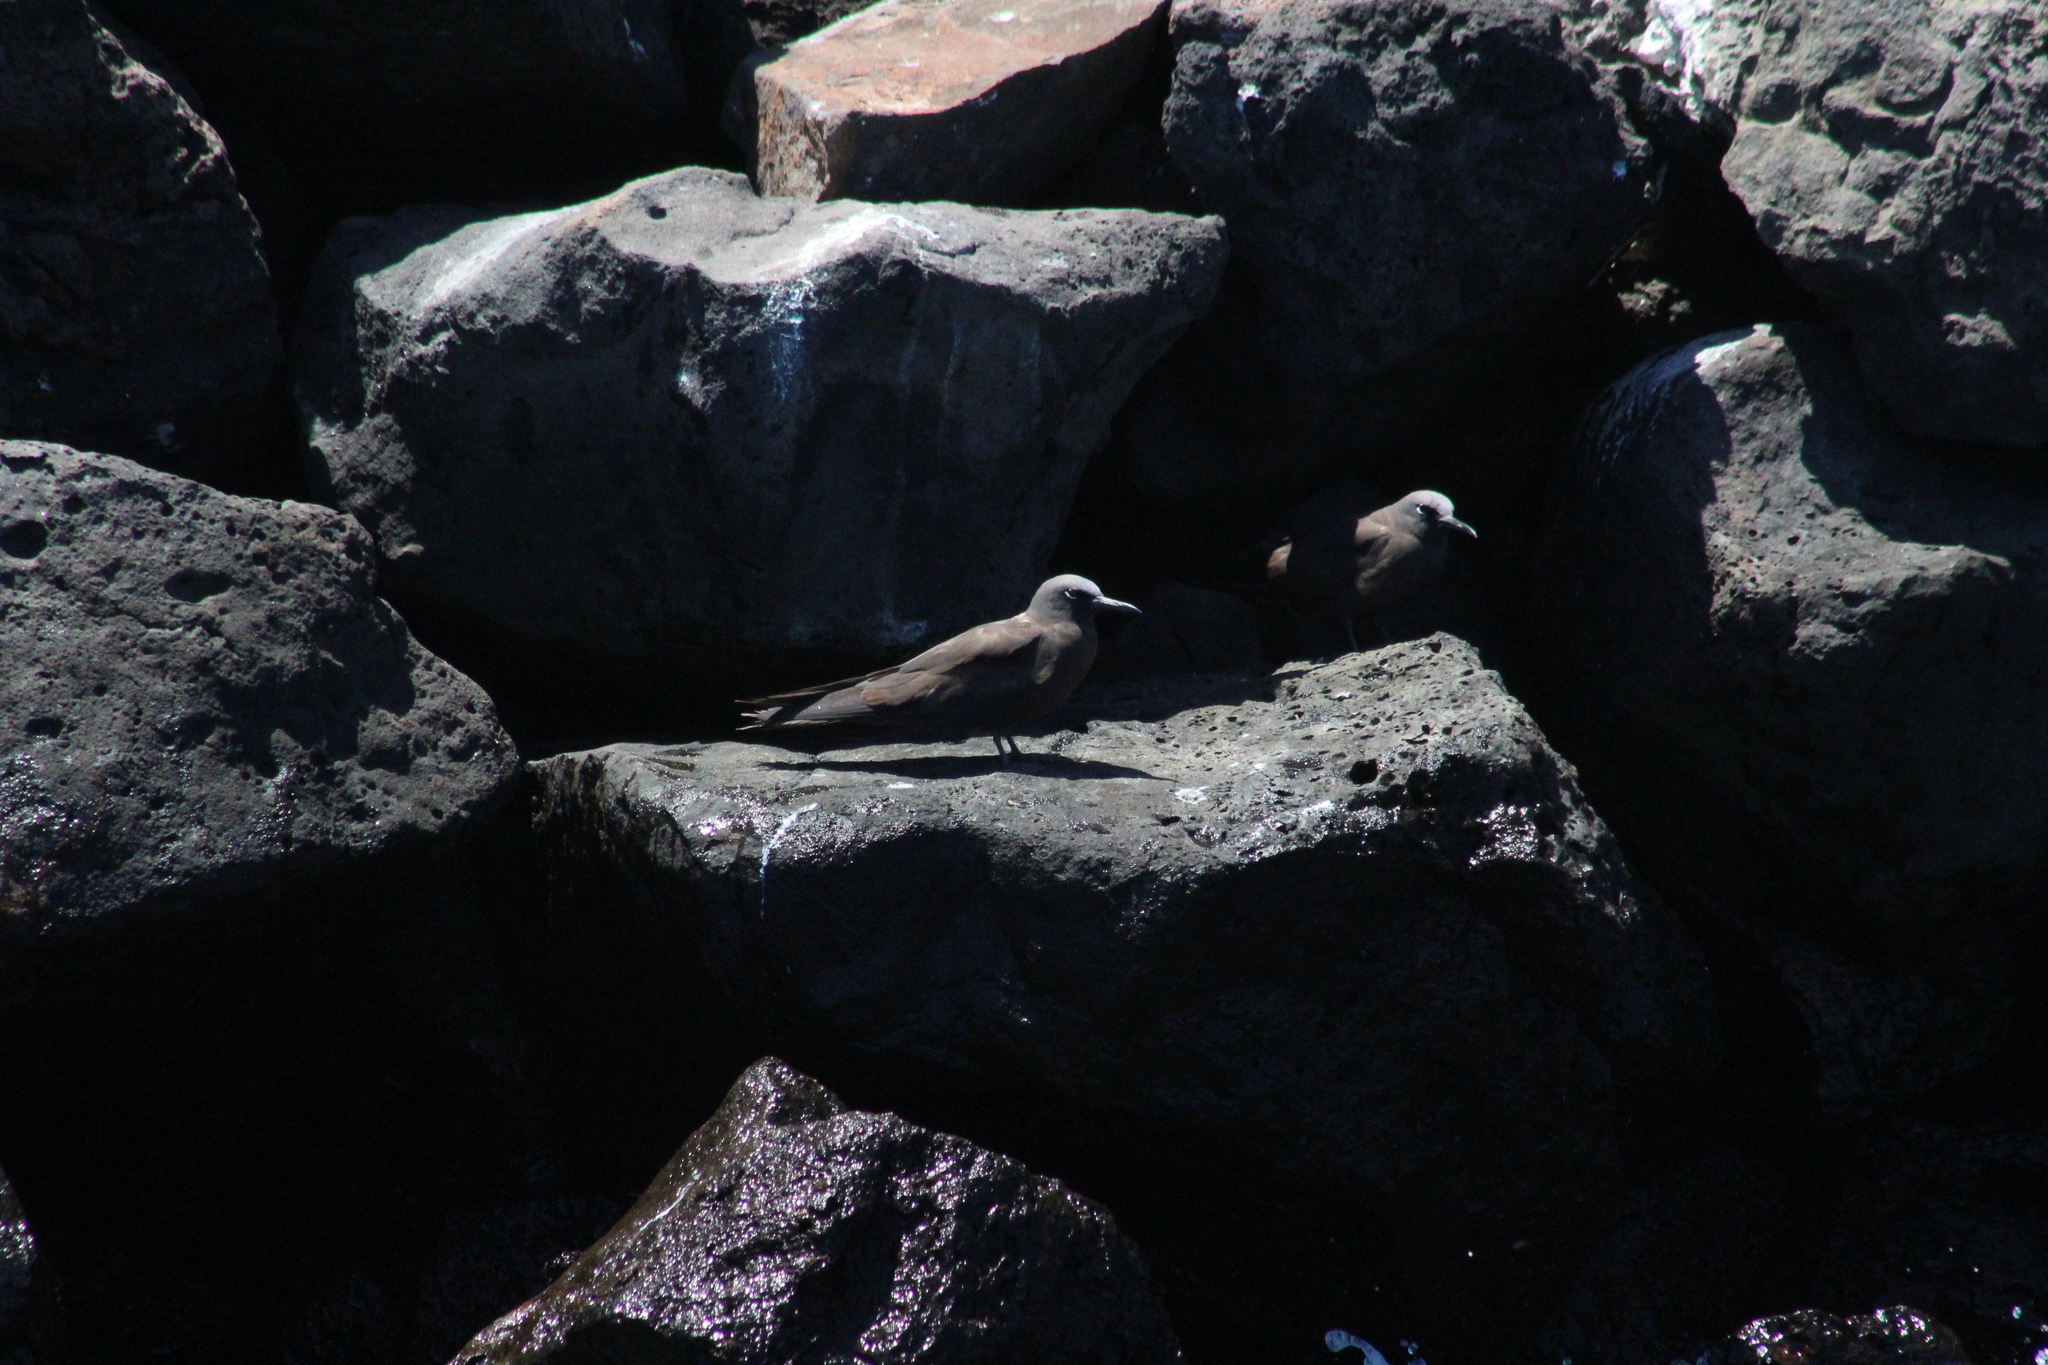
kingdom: Animalia
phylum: Chordata
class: Aves
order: Charadriiformes
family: Laridae
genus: Anous
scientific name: Anous stolidus
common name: Brown noddy
